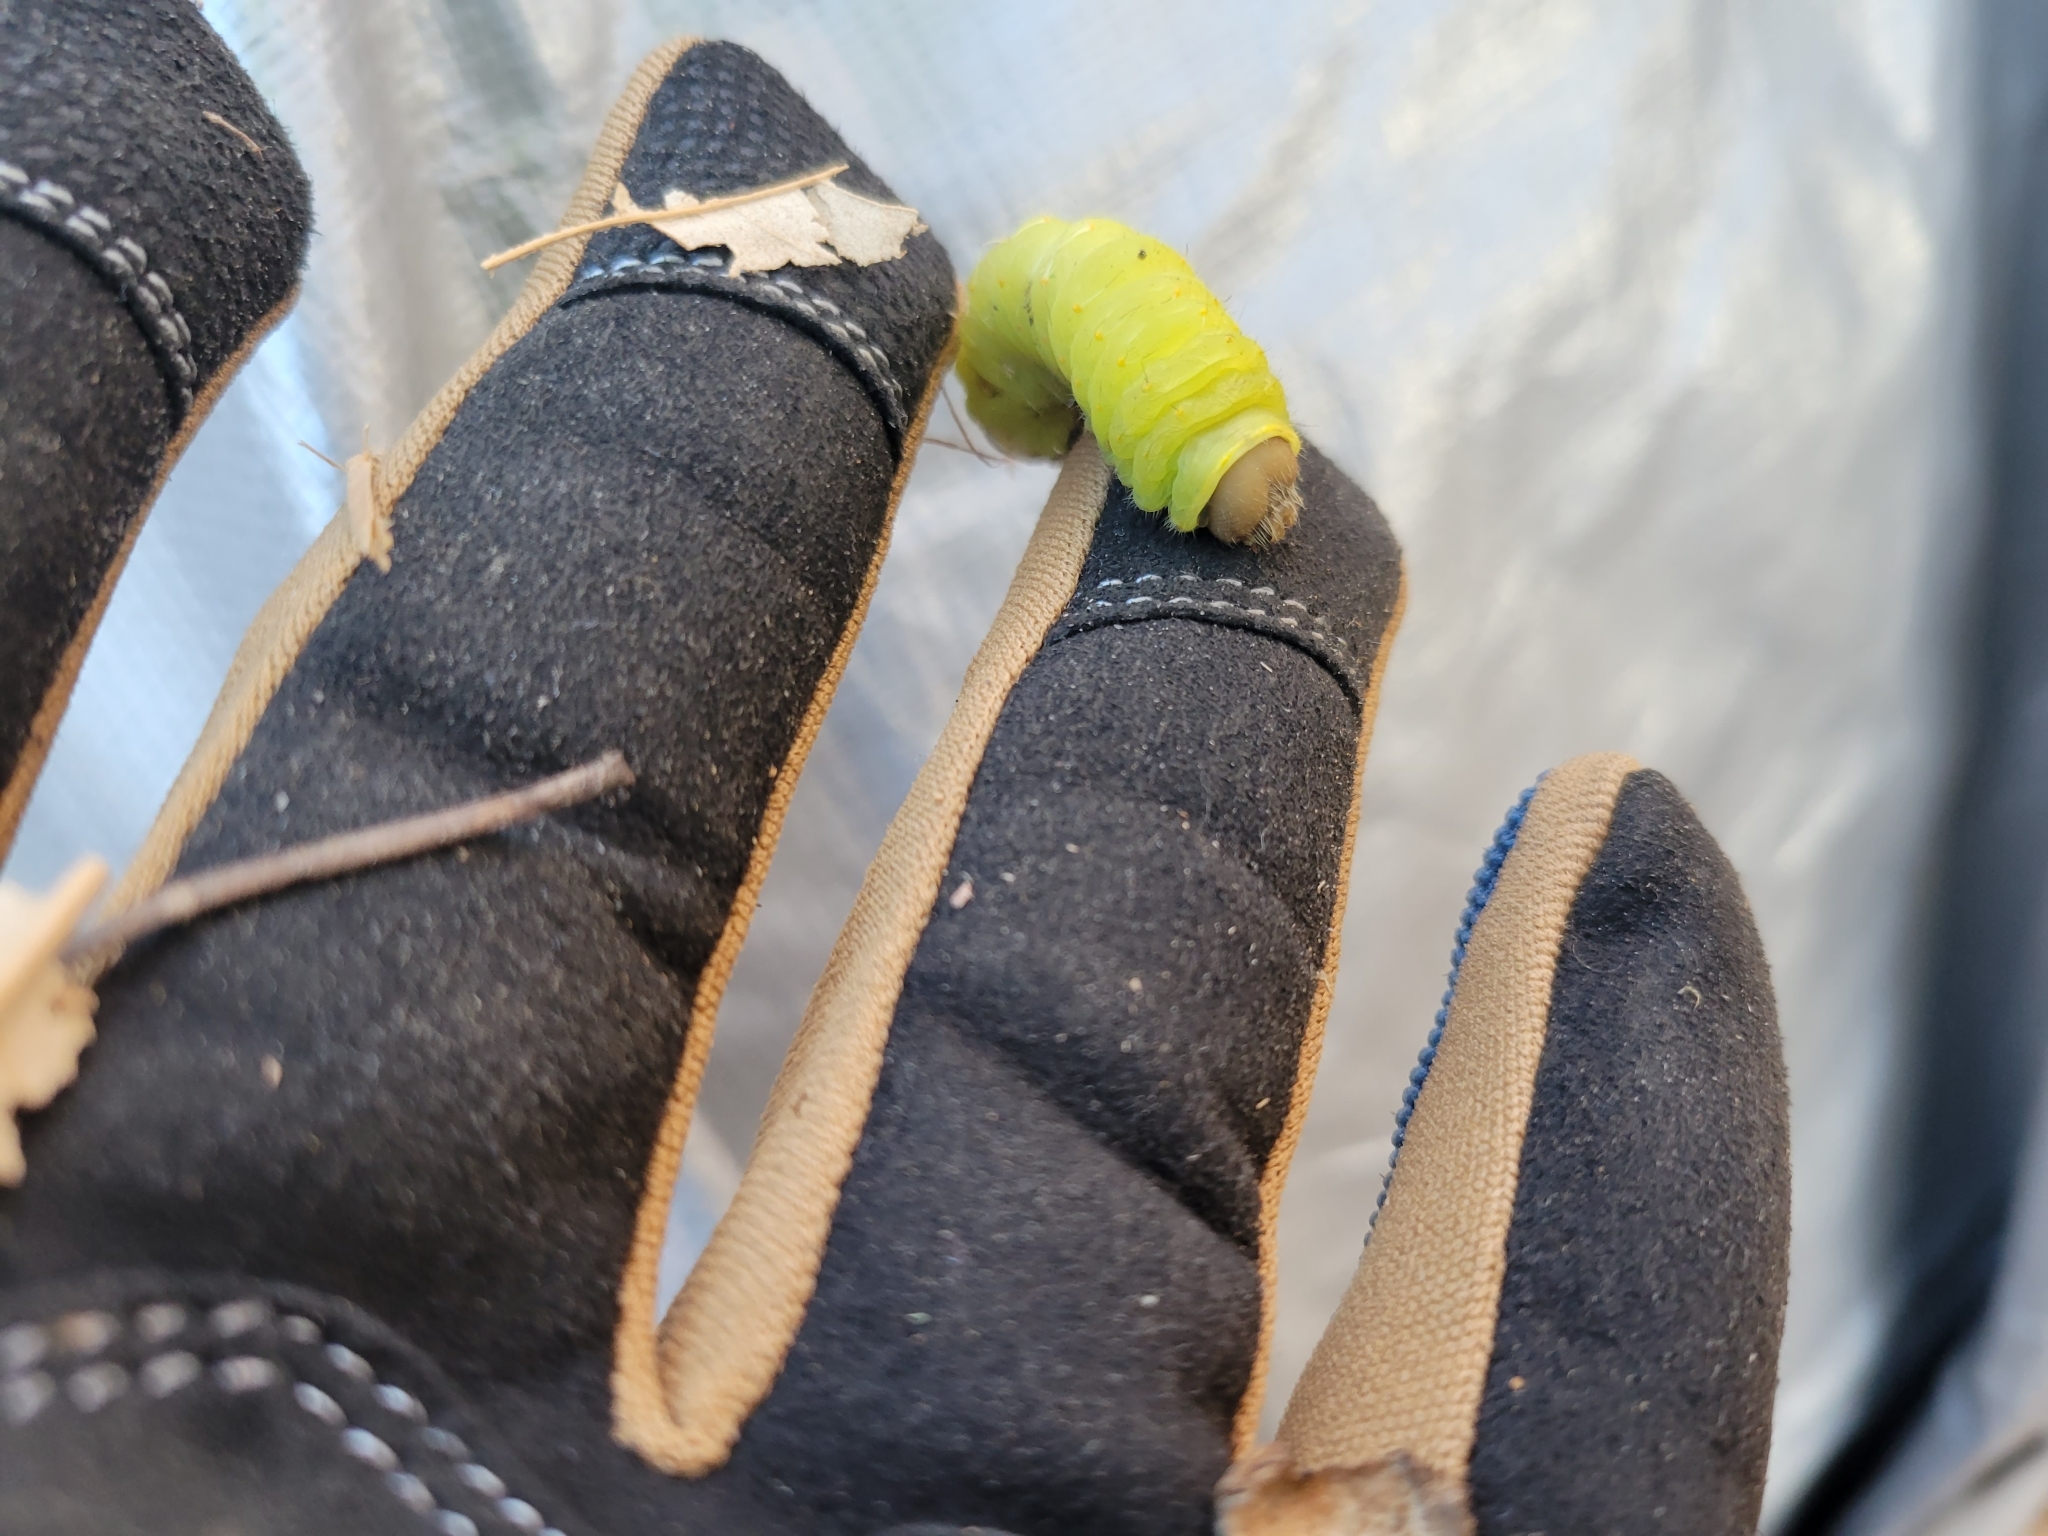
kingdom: Animalia
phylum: Arthropoda
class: Insecta
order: Lepidoptera
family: Saturniidae
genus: Antheraea
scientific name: Antheraea polyphemus
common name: Polyphemus moth
